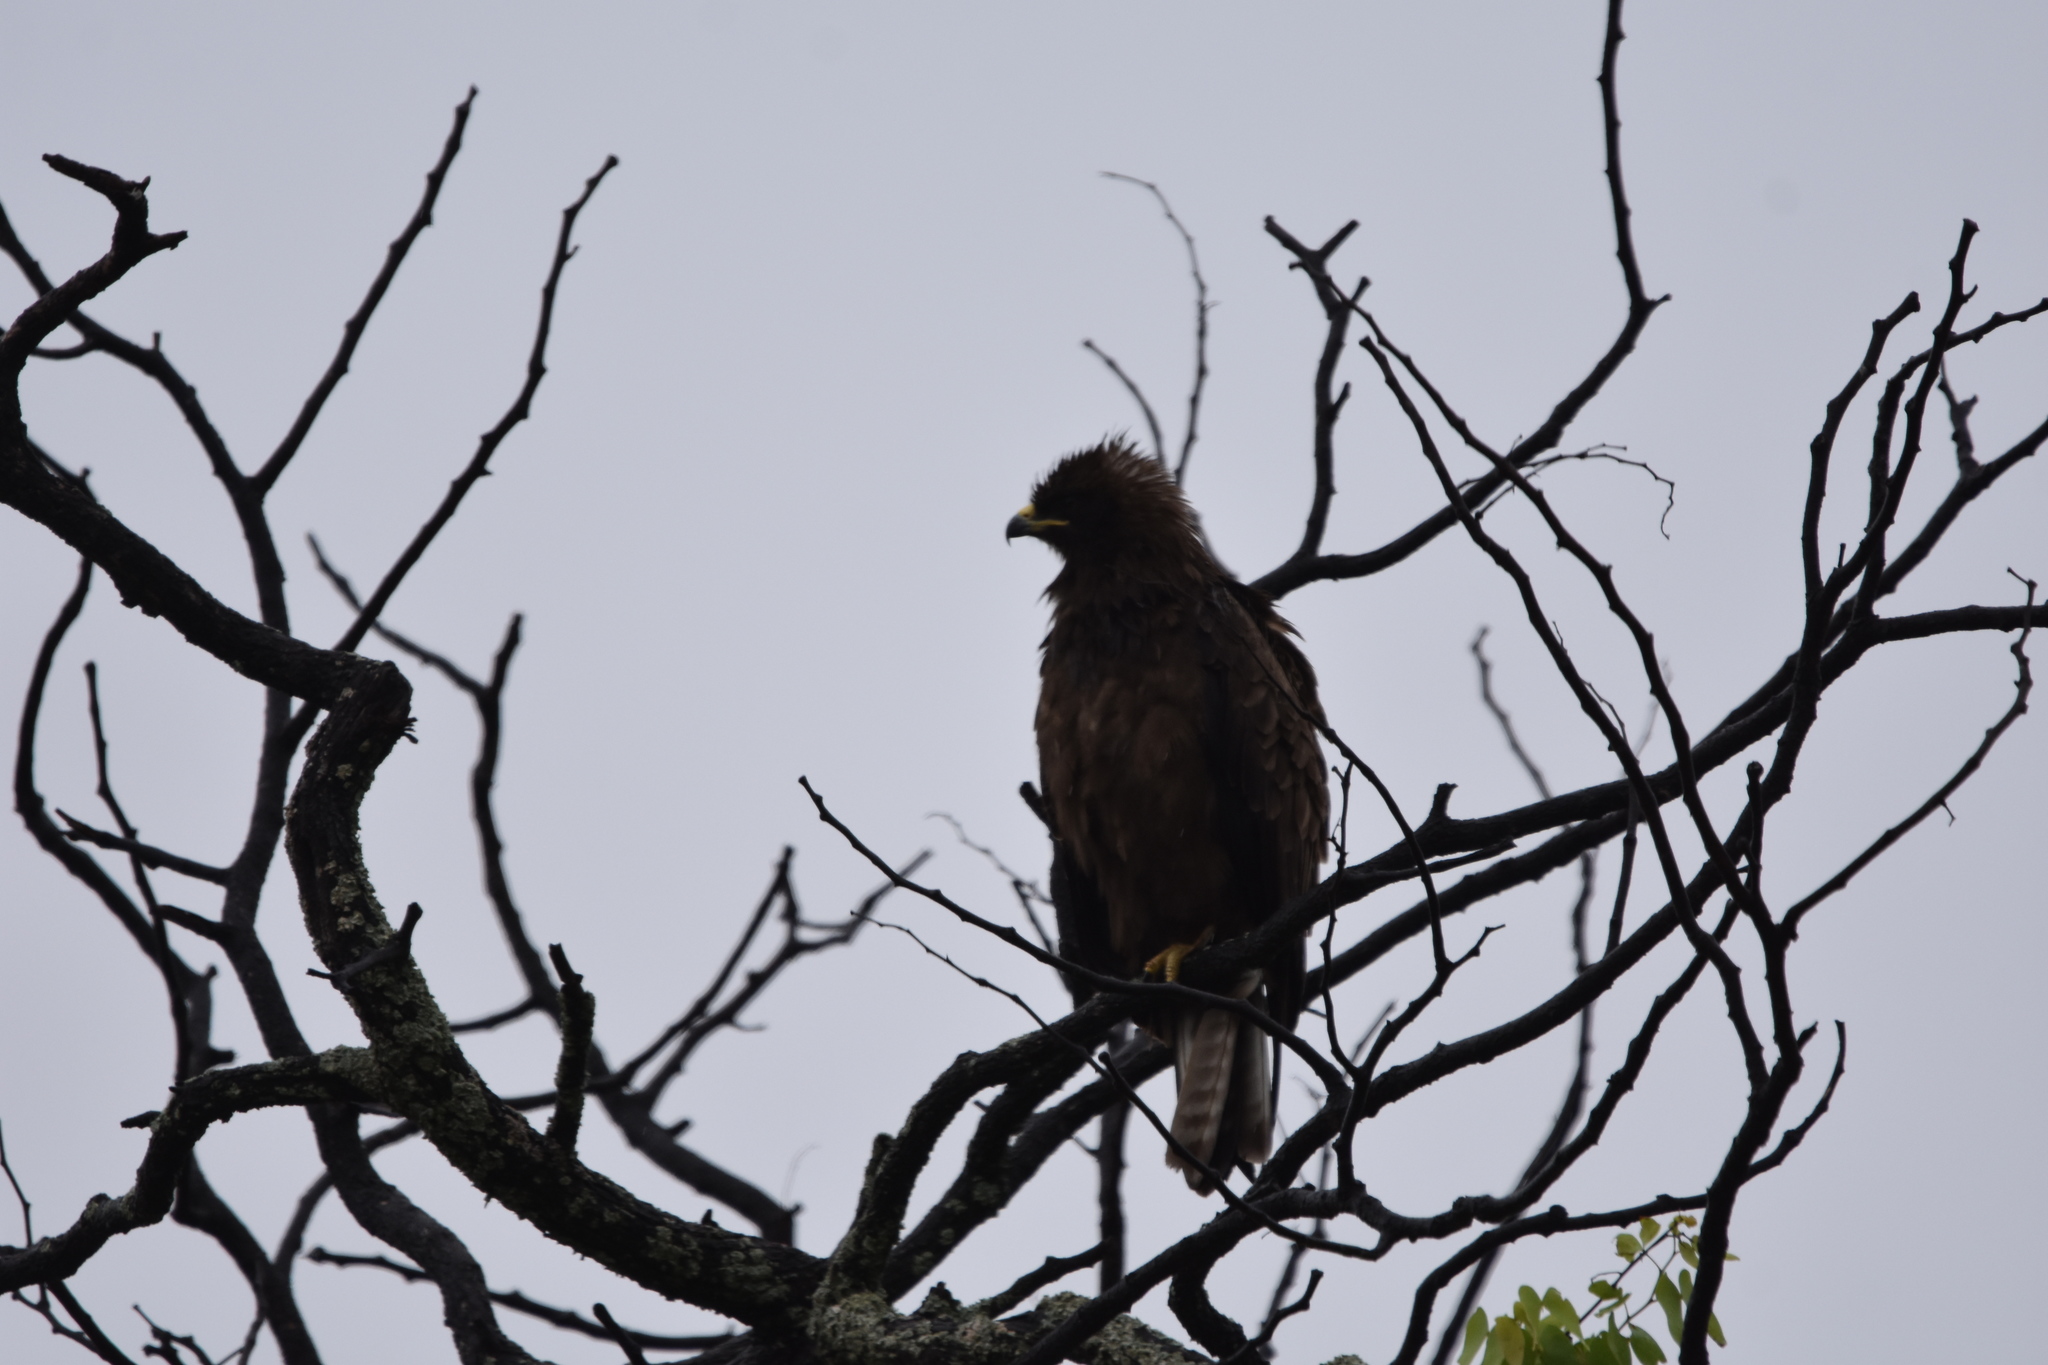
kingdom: Animalia
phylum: Chordata
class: Aves
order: Accipitriformes
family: Accipitridae
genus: Hieraaetus
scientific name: Hieraaetus wahlbergi
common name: Wahlberg's eagle
